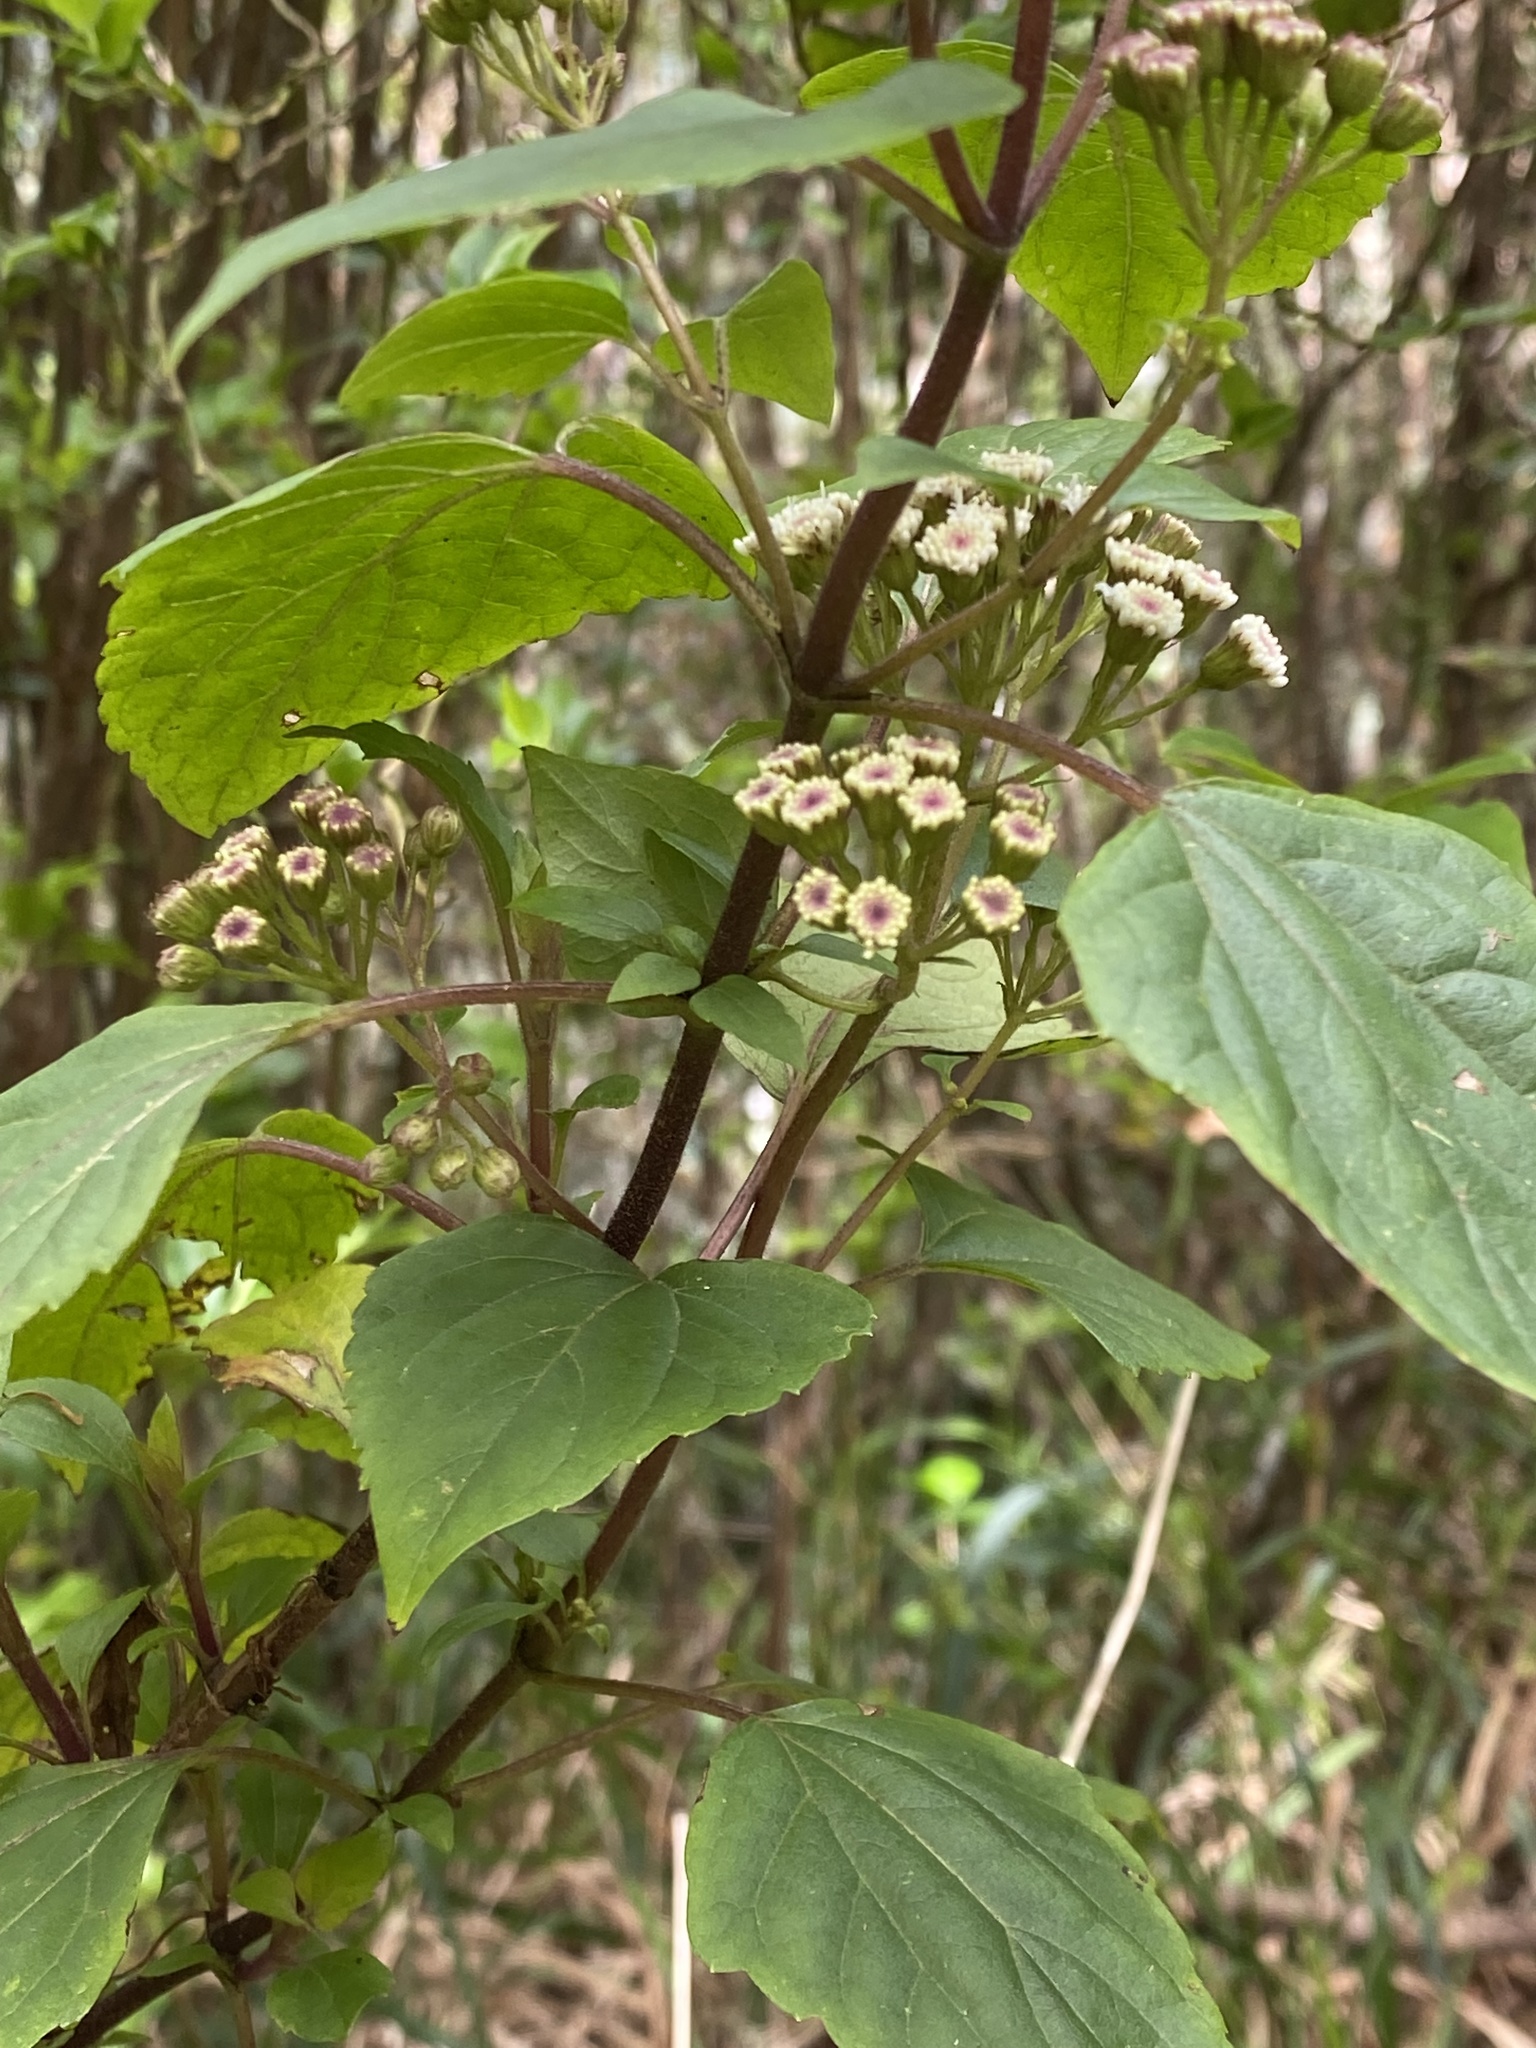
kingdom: Plantae
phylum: Tracheophyta
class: Magnoliopsida
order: Asterales
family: Asteraceae
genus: Ageratina
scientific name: Ageratina adenophora
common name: Sticky snakeroot
